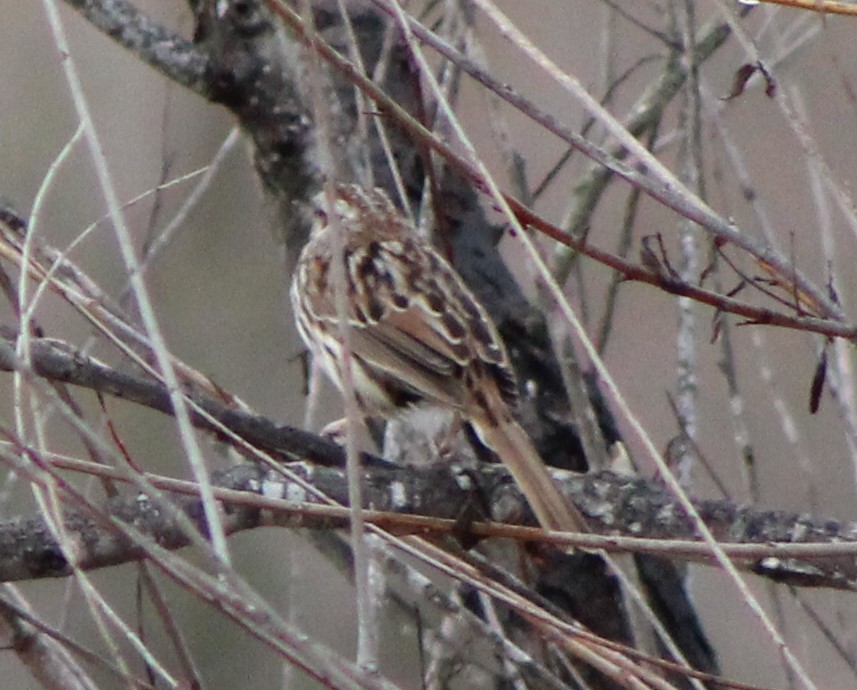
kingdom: Animalia
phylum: Chordata
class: Aves
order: Passeriformes
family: Passerellidae
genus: Melospiza
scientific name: Melospiza melodia
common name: Song sparrow
